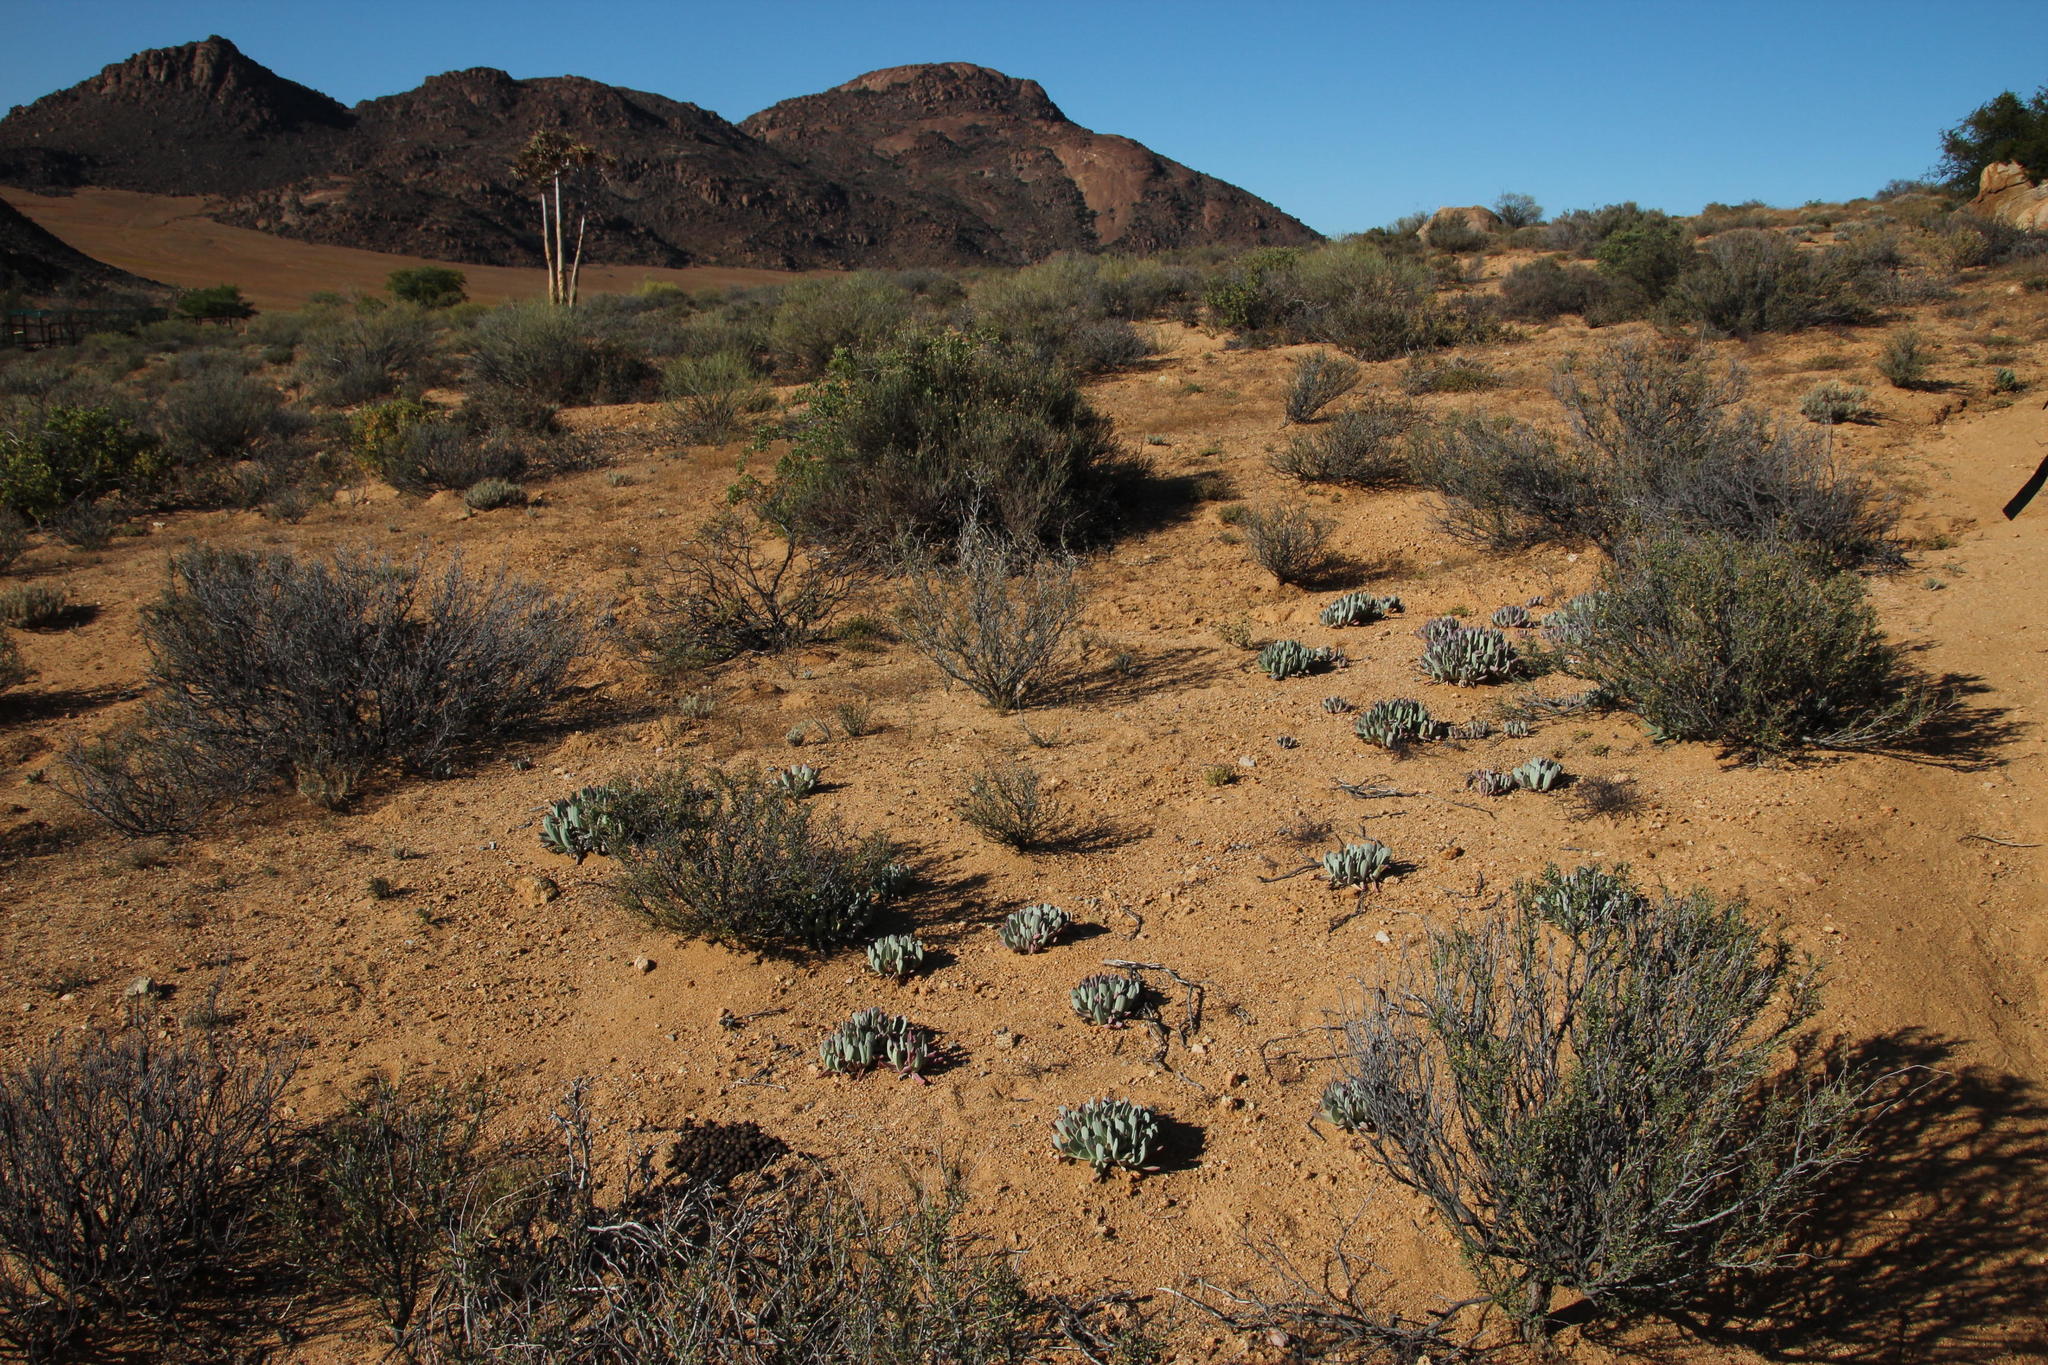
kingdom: Plantae
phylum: Tracheophyta
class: Magnoliopsida
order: Caryophyllales
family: Aizoaceae
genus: Cheiridopsis
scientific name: Cheiridopsis denticulata
